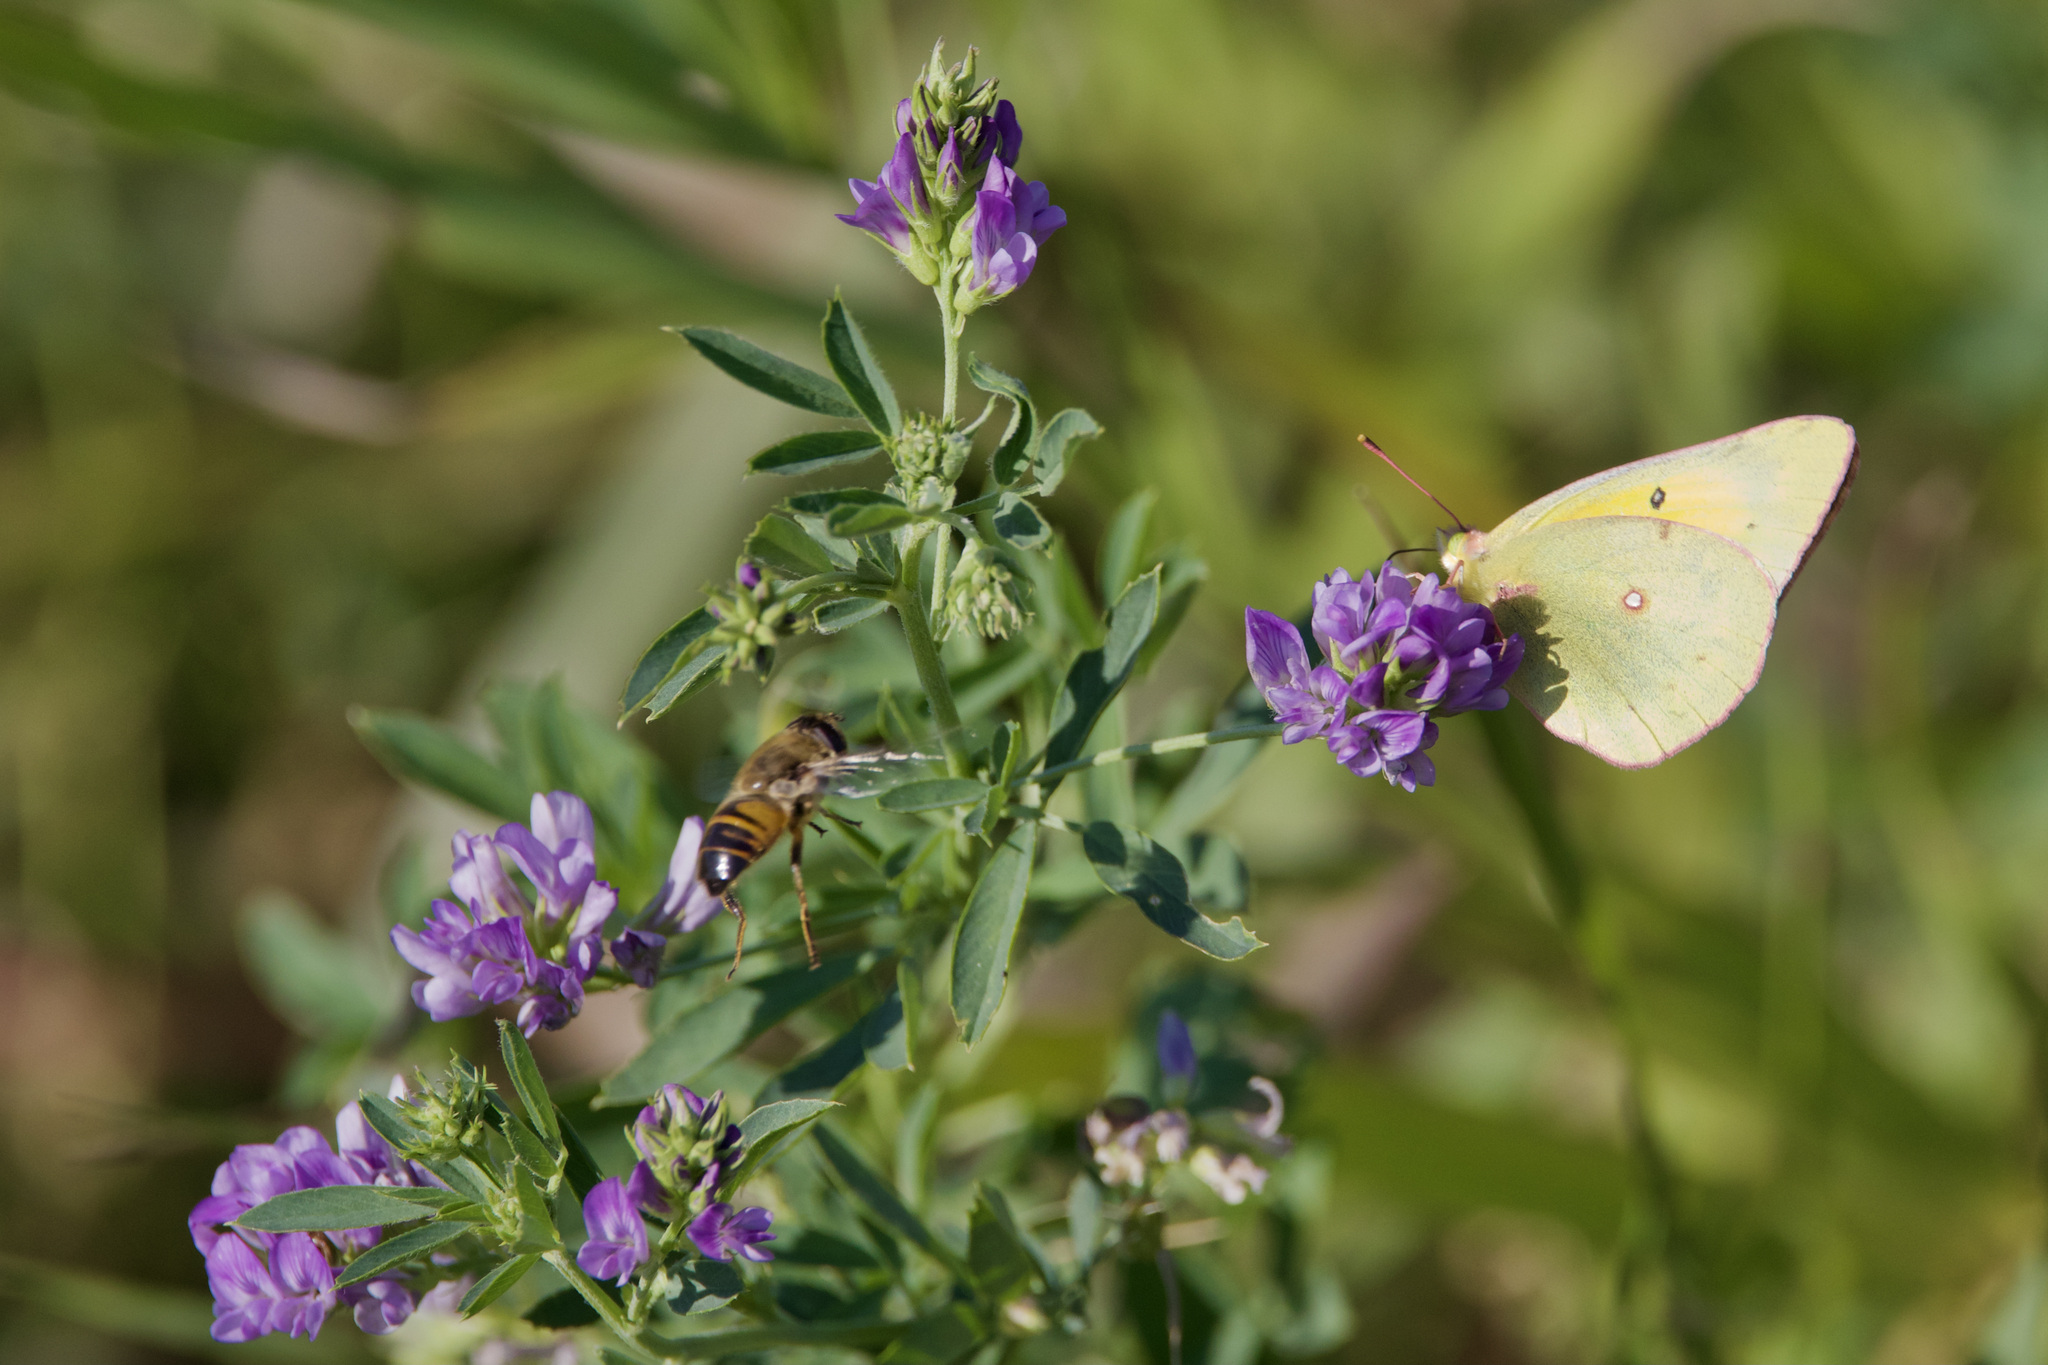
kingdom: Animalia
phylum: Arthropoda
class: Insecta
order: Lepidoptera
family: Pieridae
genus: Colias
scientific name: Colias eurytheme
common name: Alfalfa butterfly
